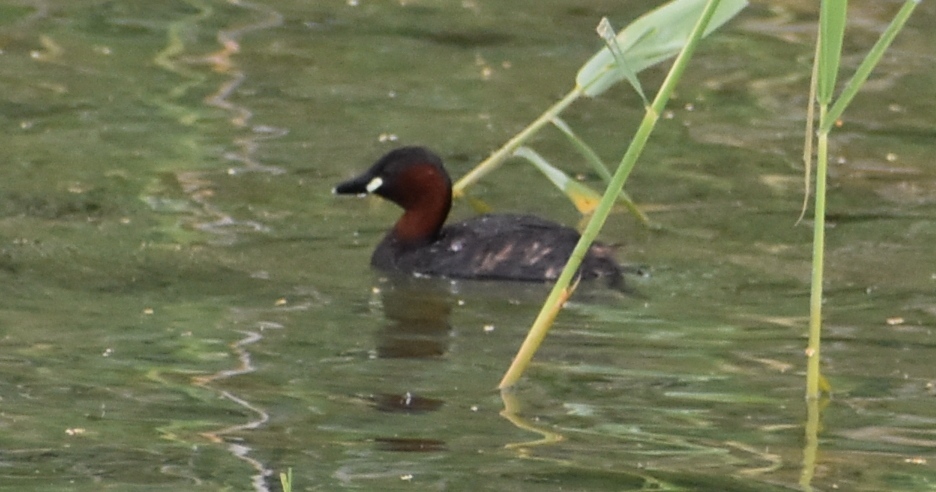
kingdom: Animalia
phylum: Chordata
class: Aves
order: Podicipediformes
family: Podicipedidae
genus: Tachybaptus
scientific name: Tachybaptus ruficollis
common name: Little grebe
